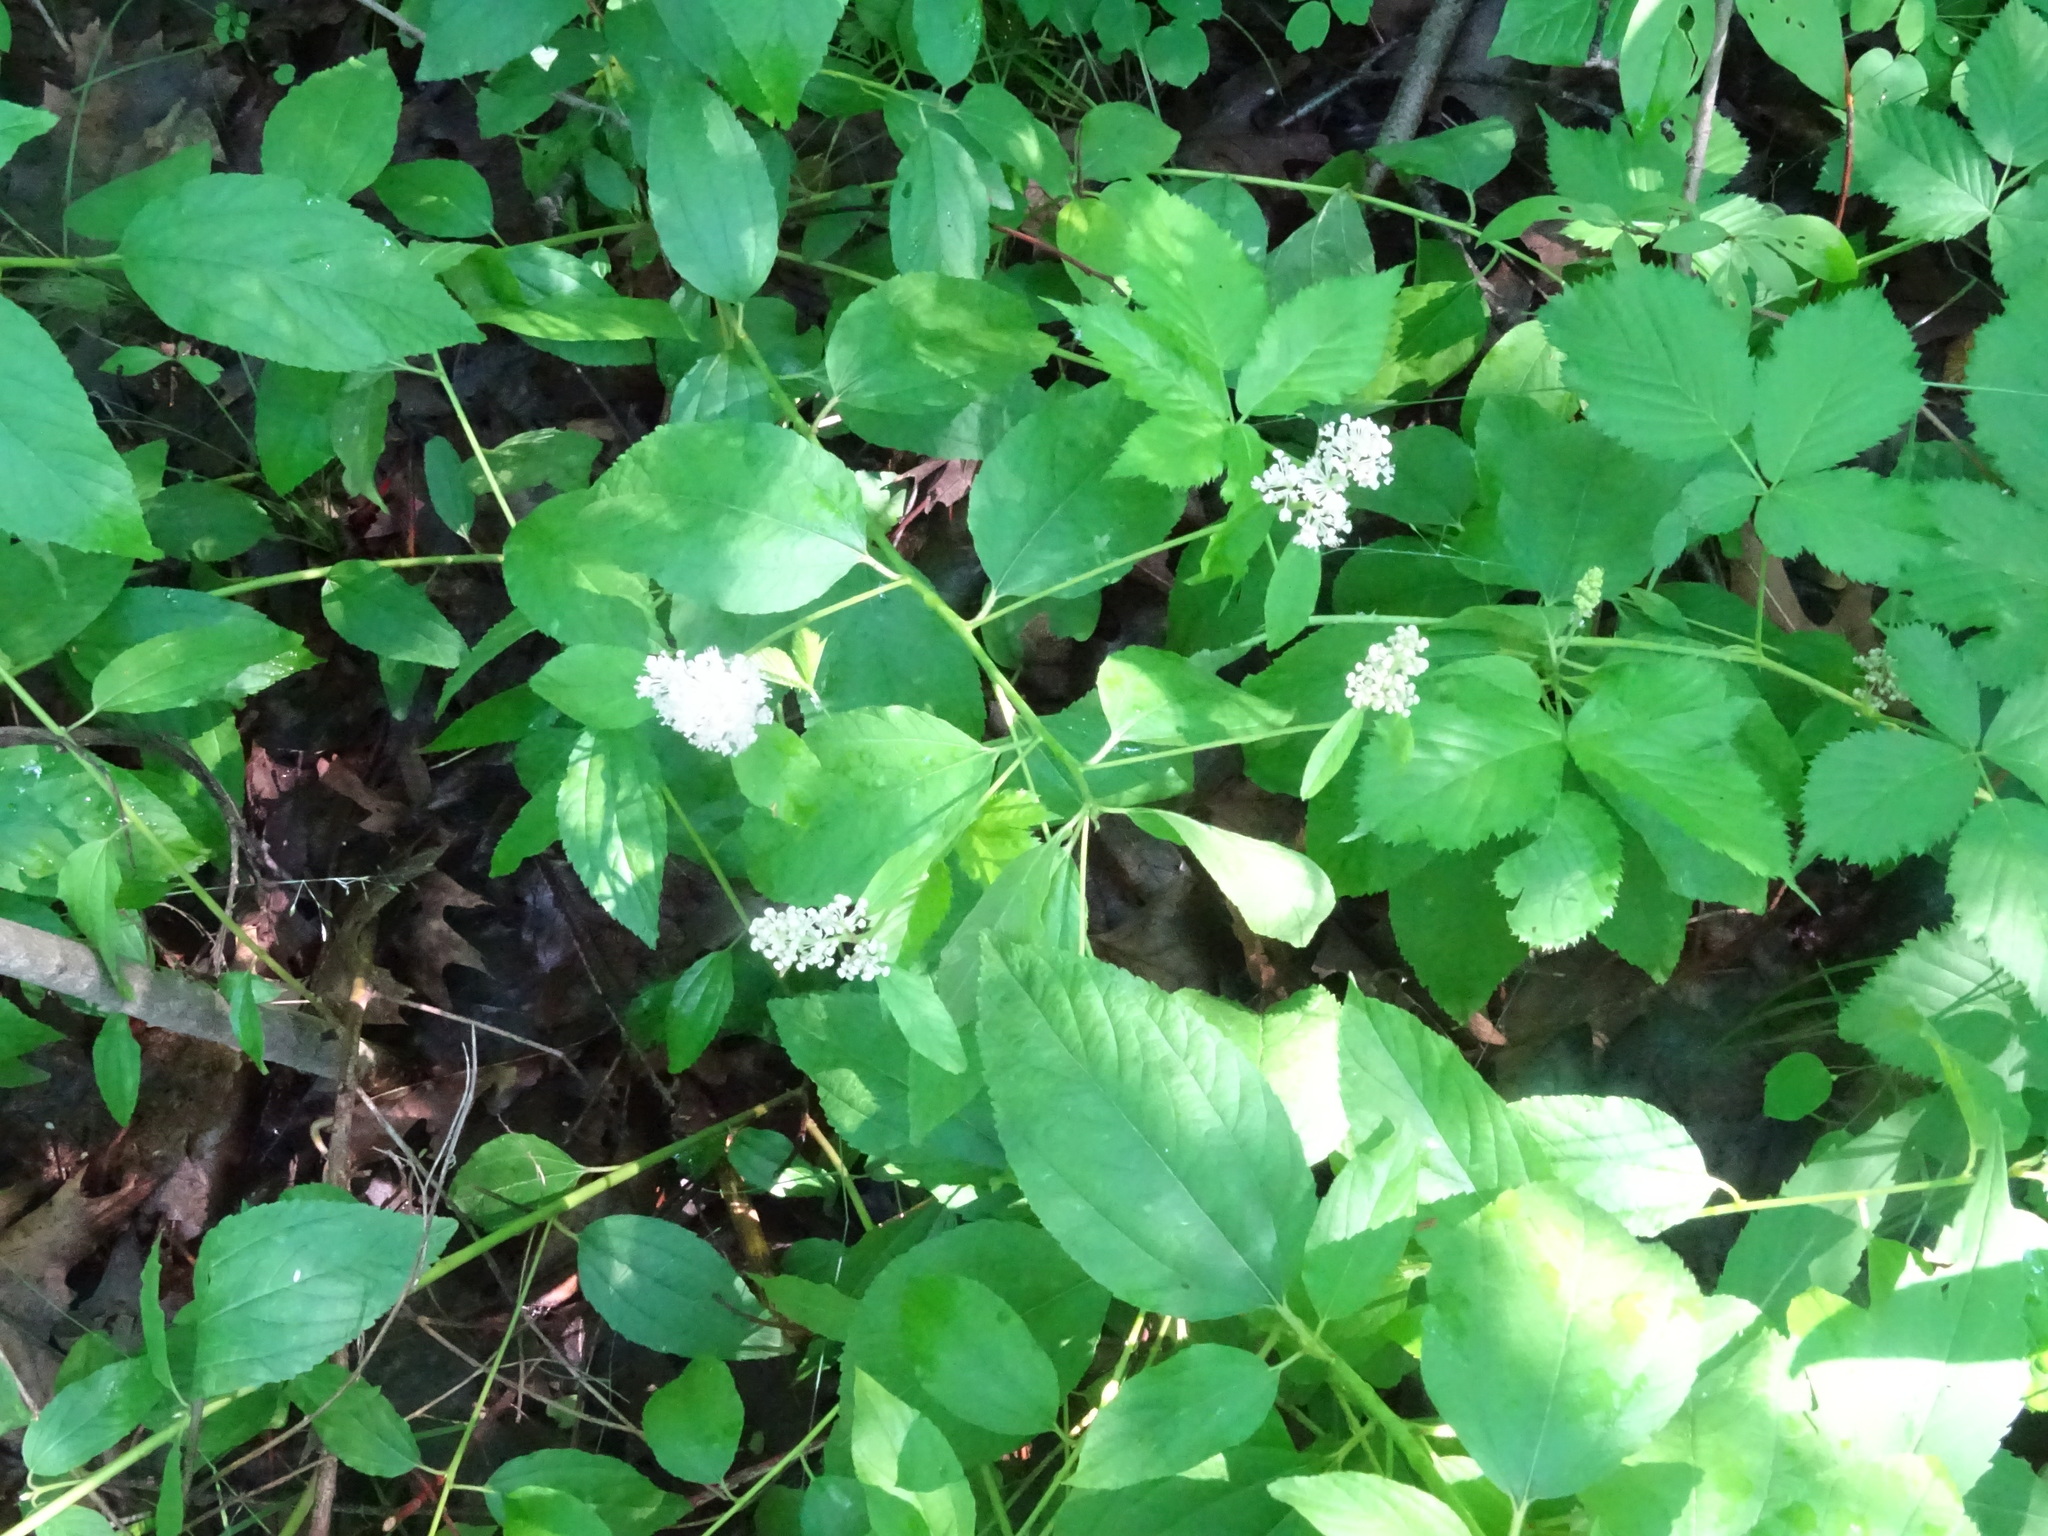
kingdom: Plantae
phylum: Tracheophyta
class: Magnoliopsida
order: Rosales
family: Rhamnaceae
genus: Ceanothus
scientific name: Ceanothus americanus
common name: Redroot
